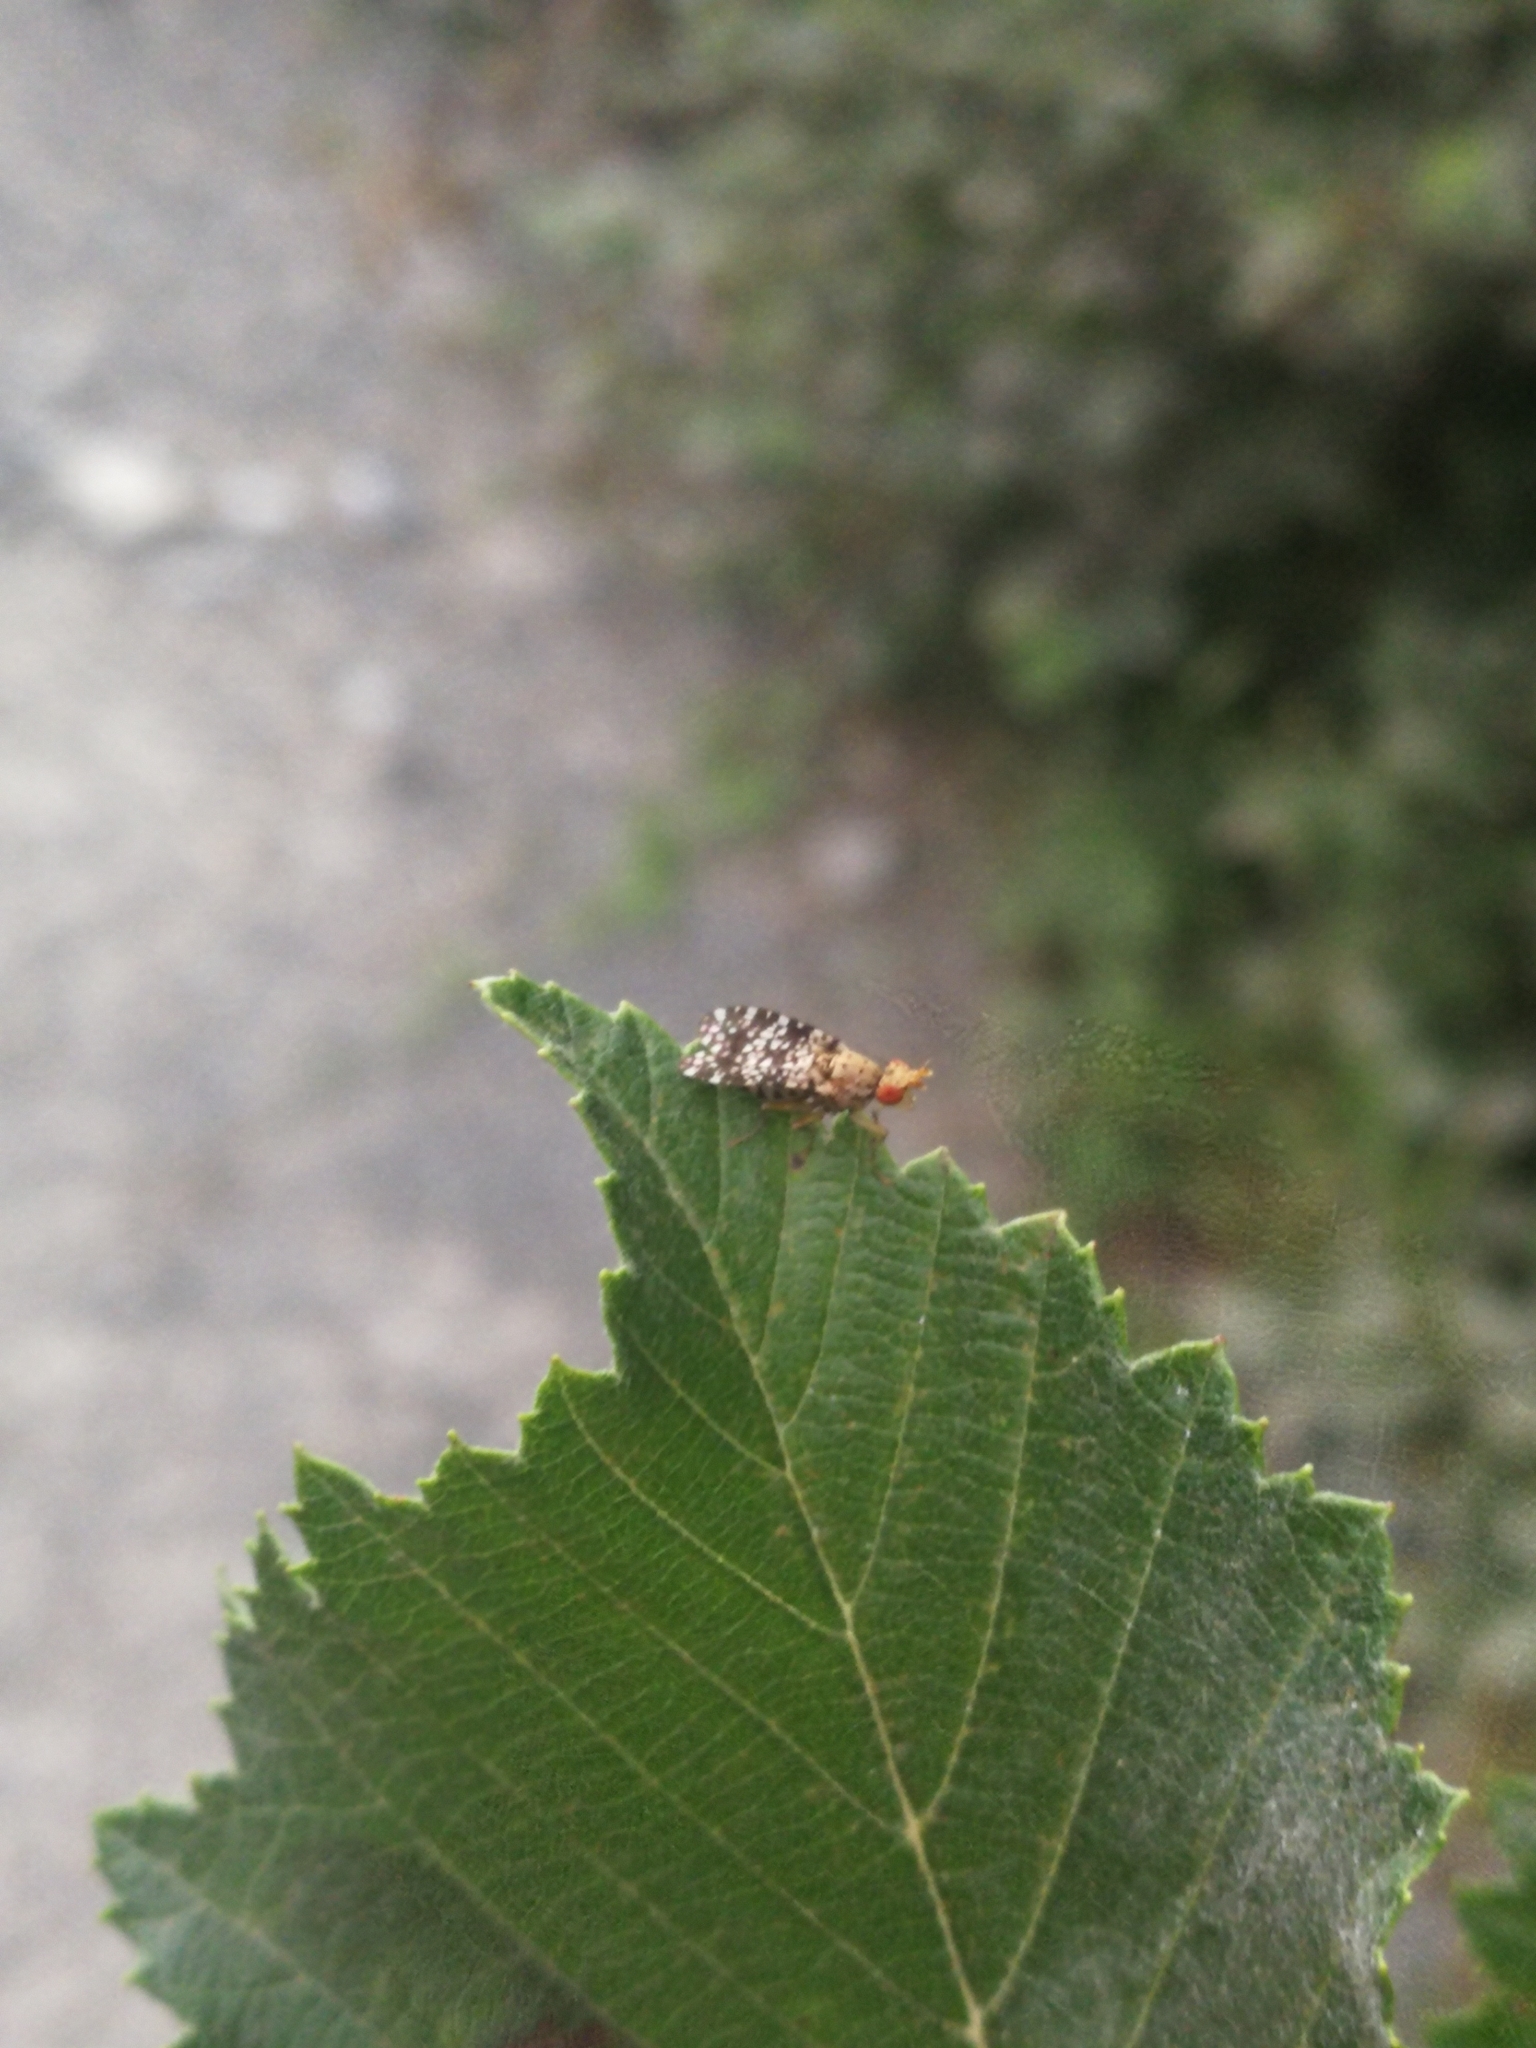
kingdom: Animalia
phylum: Arthropoda
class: Insecta
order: Diptera
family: Sciomyzidae
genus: Trypetoptera
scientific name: Trypetoptera punctulata
